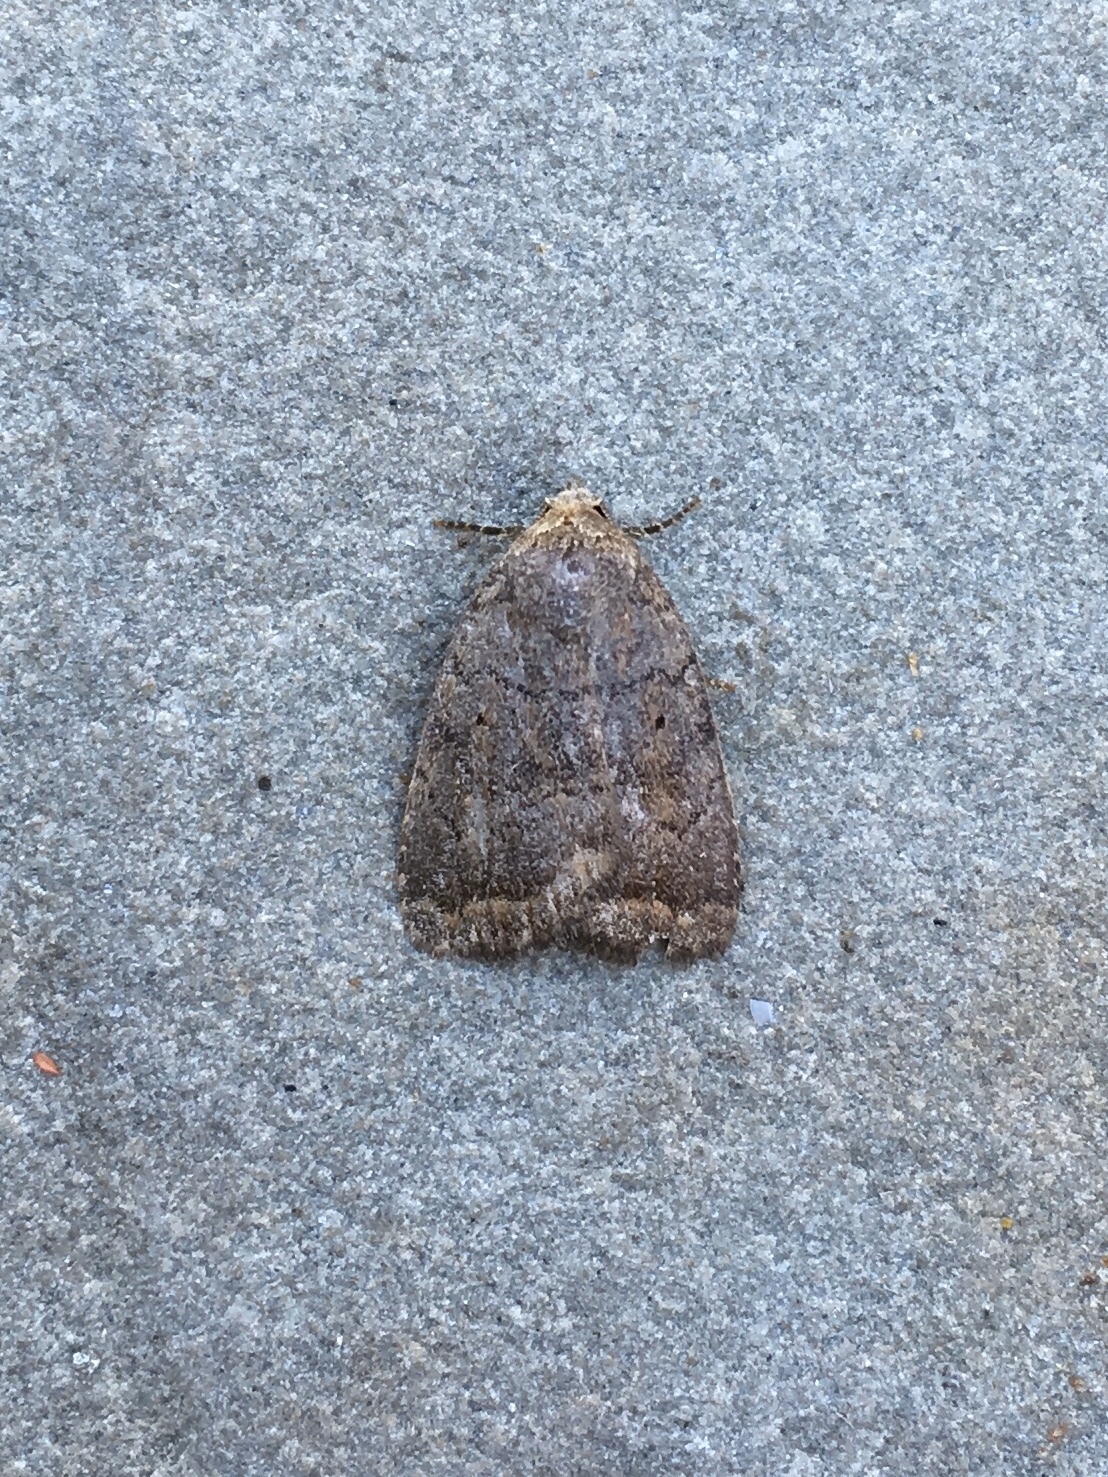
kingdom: Animalia
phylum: Arthropoda
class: Insecta
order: Lepidoptera
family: Noctuidae
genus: Athetis
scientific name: Athetis tarda
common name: Slowpoke moth
